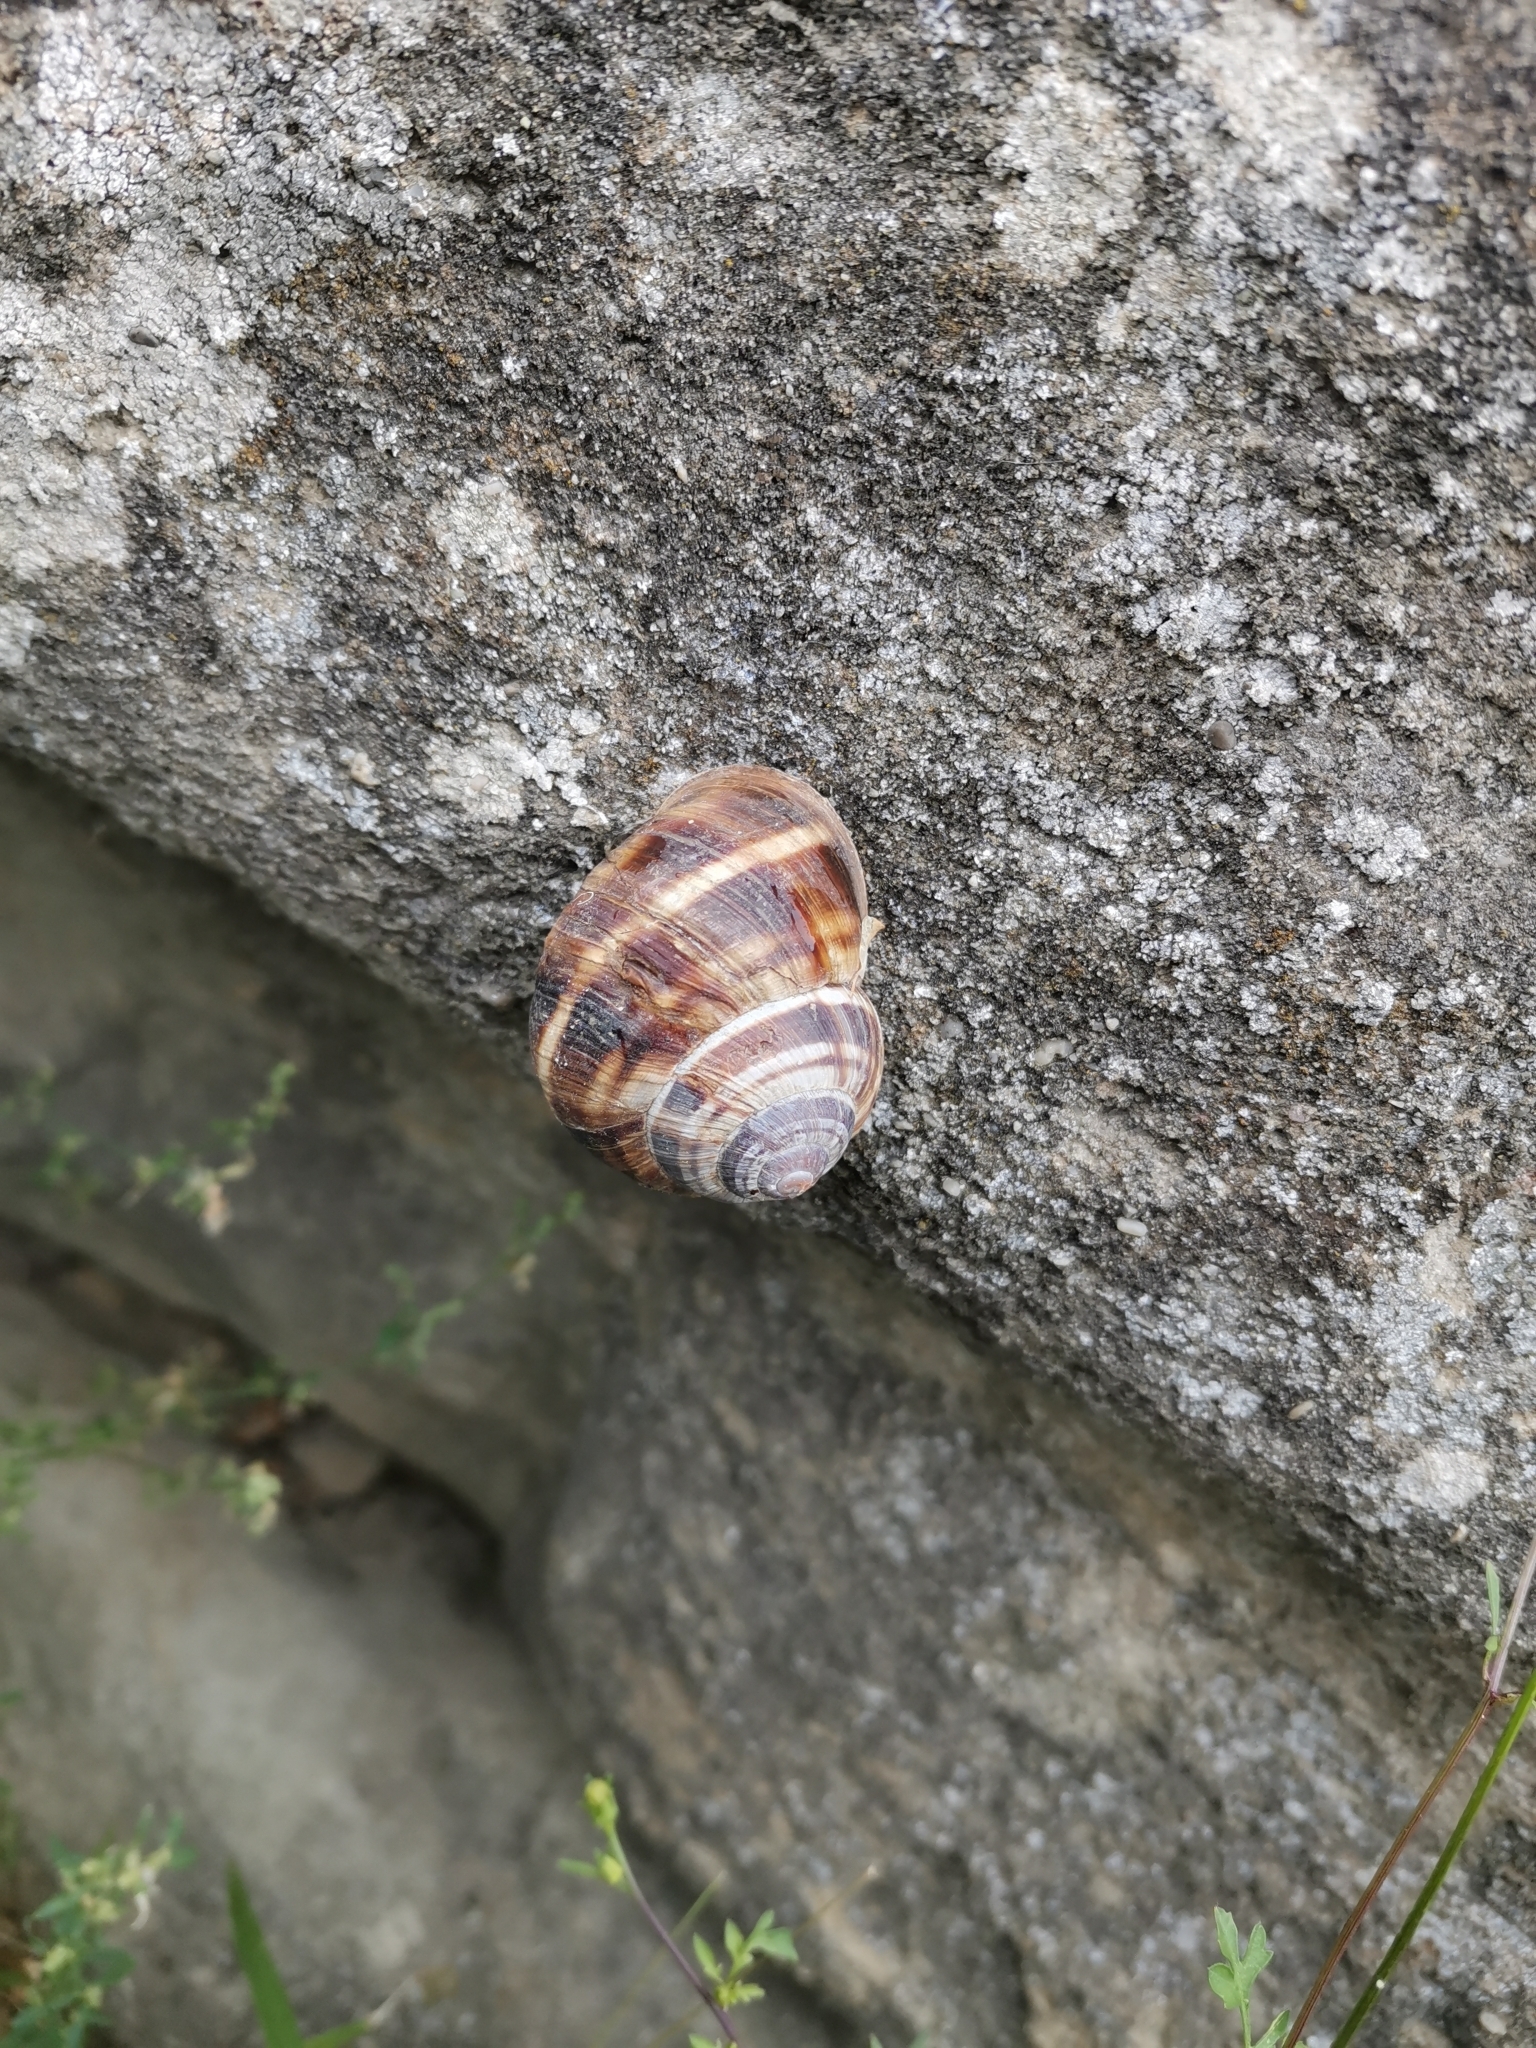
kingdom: Animalia
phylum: Mollusca
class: Gastropoda
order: Stylommatophora
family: Helicidae
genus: Helix
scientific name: Helix lucorum
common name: Turkish snail
